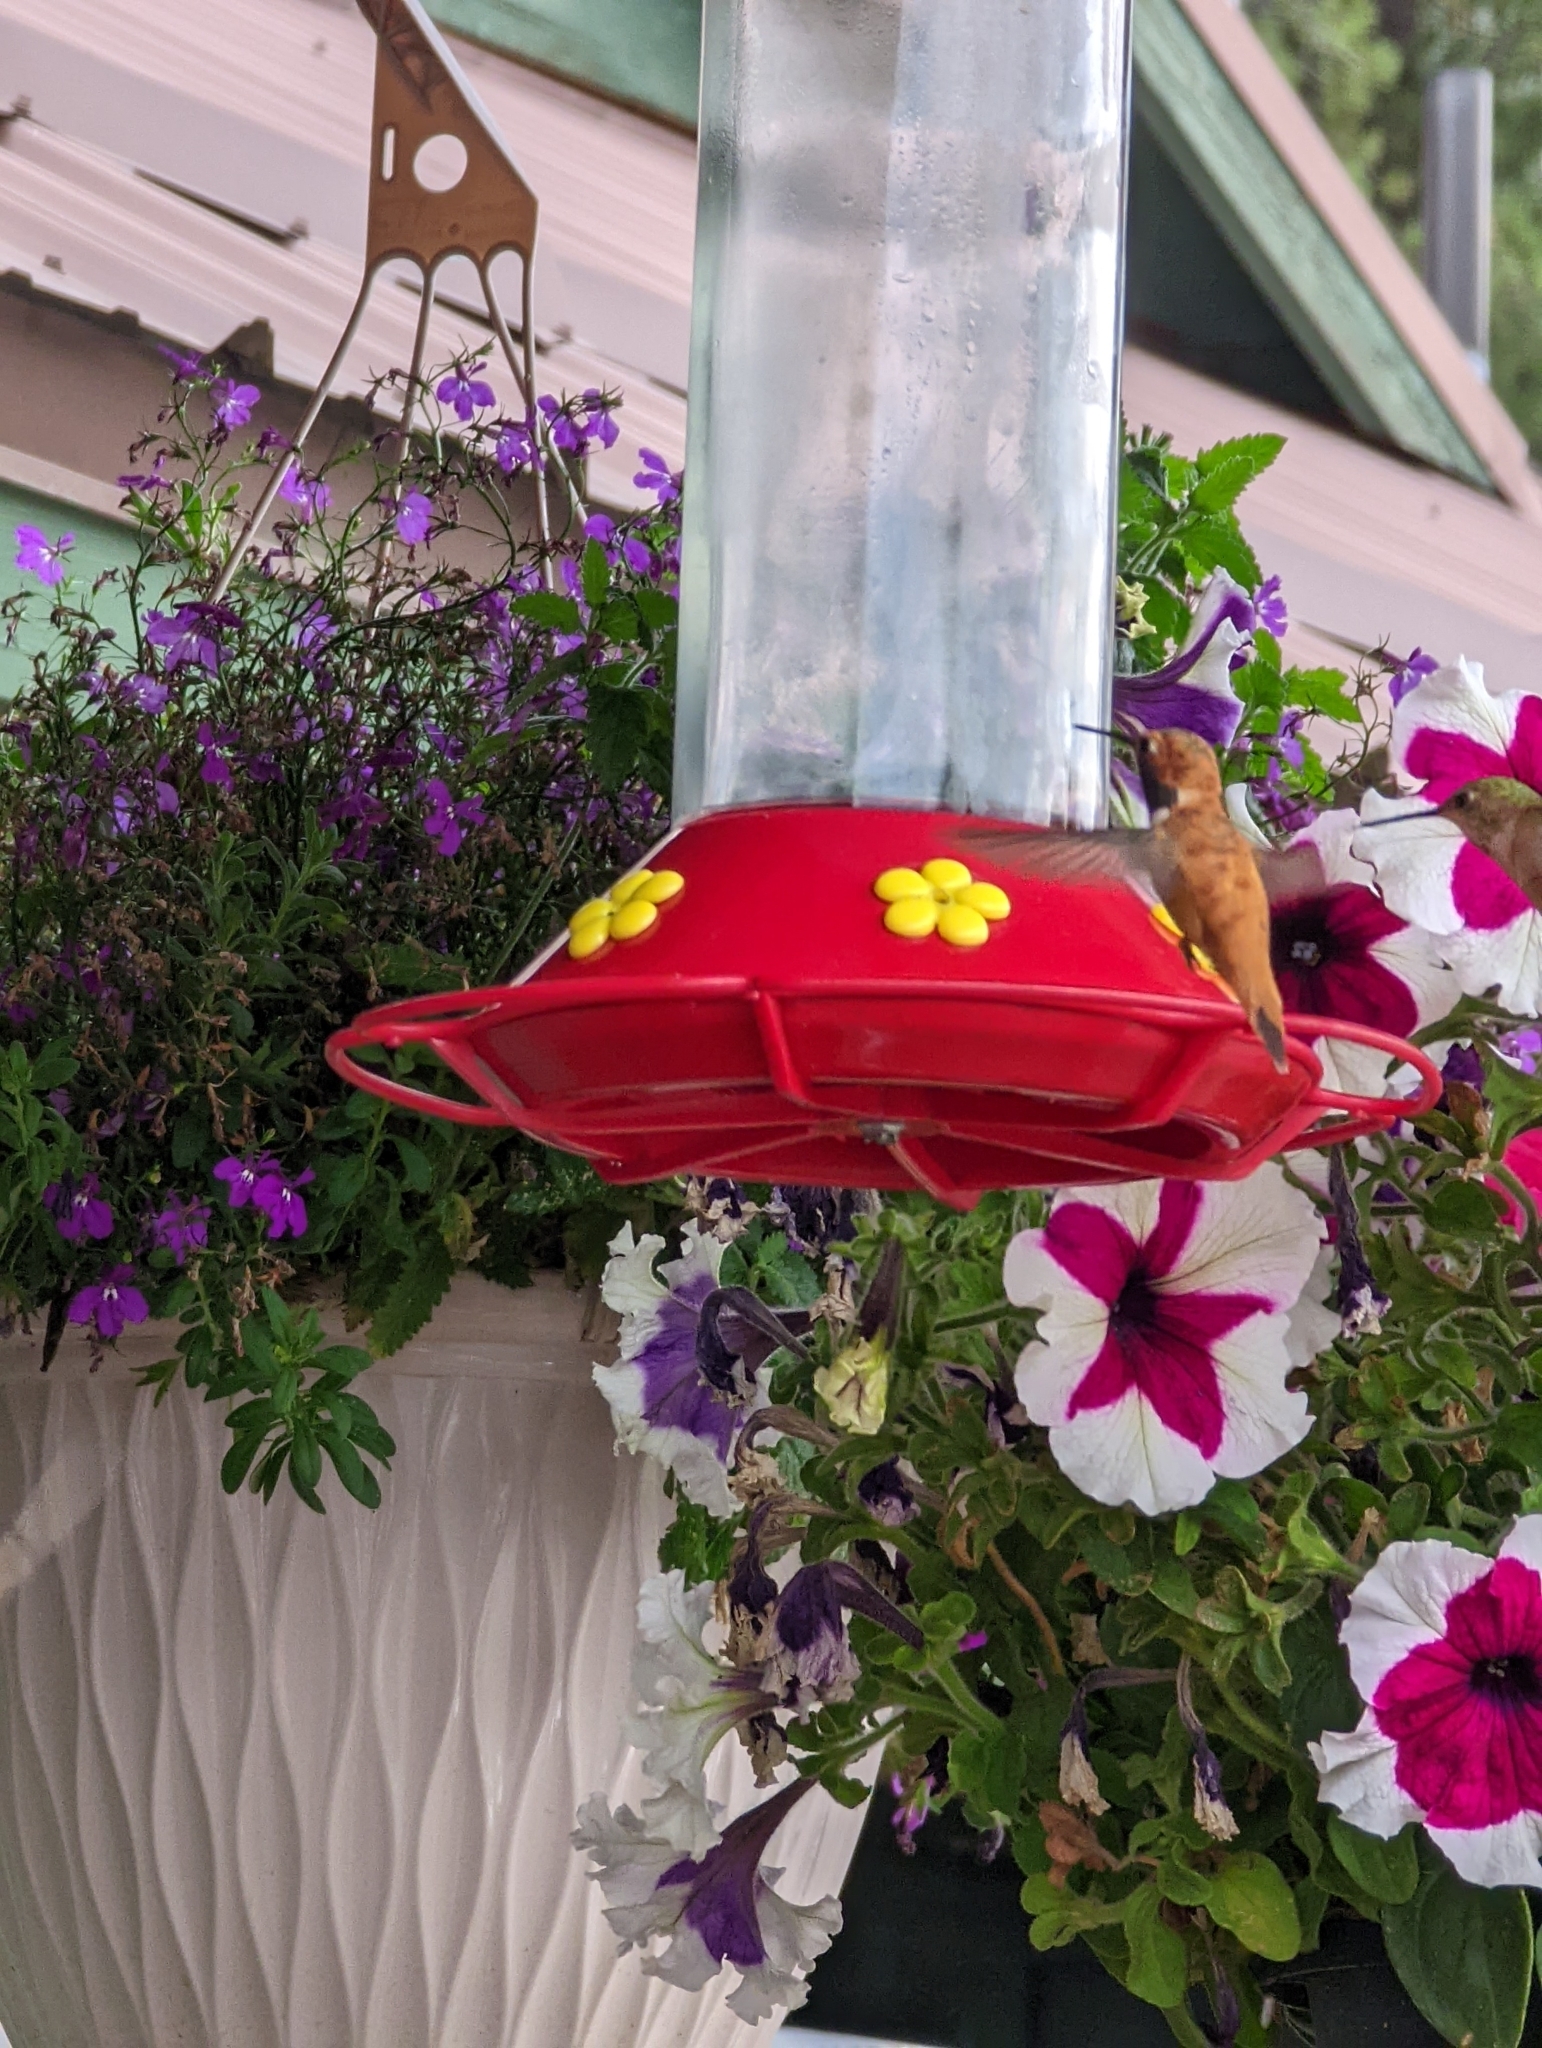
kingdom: Animalia
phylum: Chordata
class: Aves
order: Apodiformes
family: Trochilidae
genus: Selasphorus
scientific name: Selasphorus rufus
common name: Rufous hummingbird
